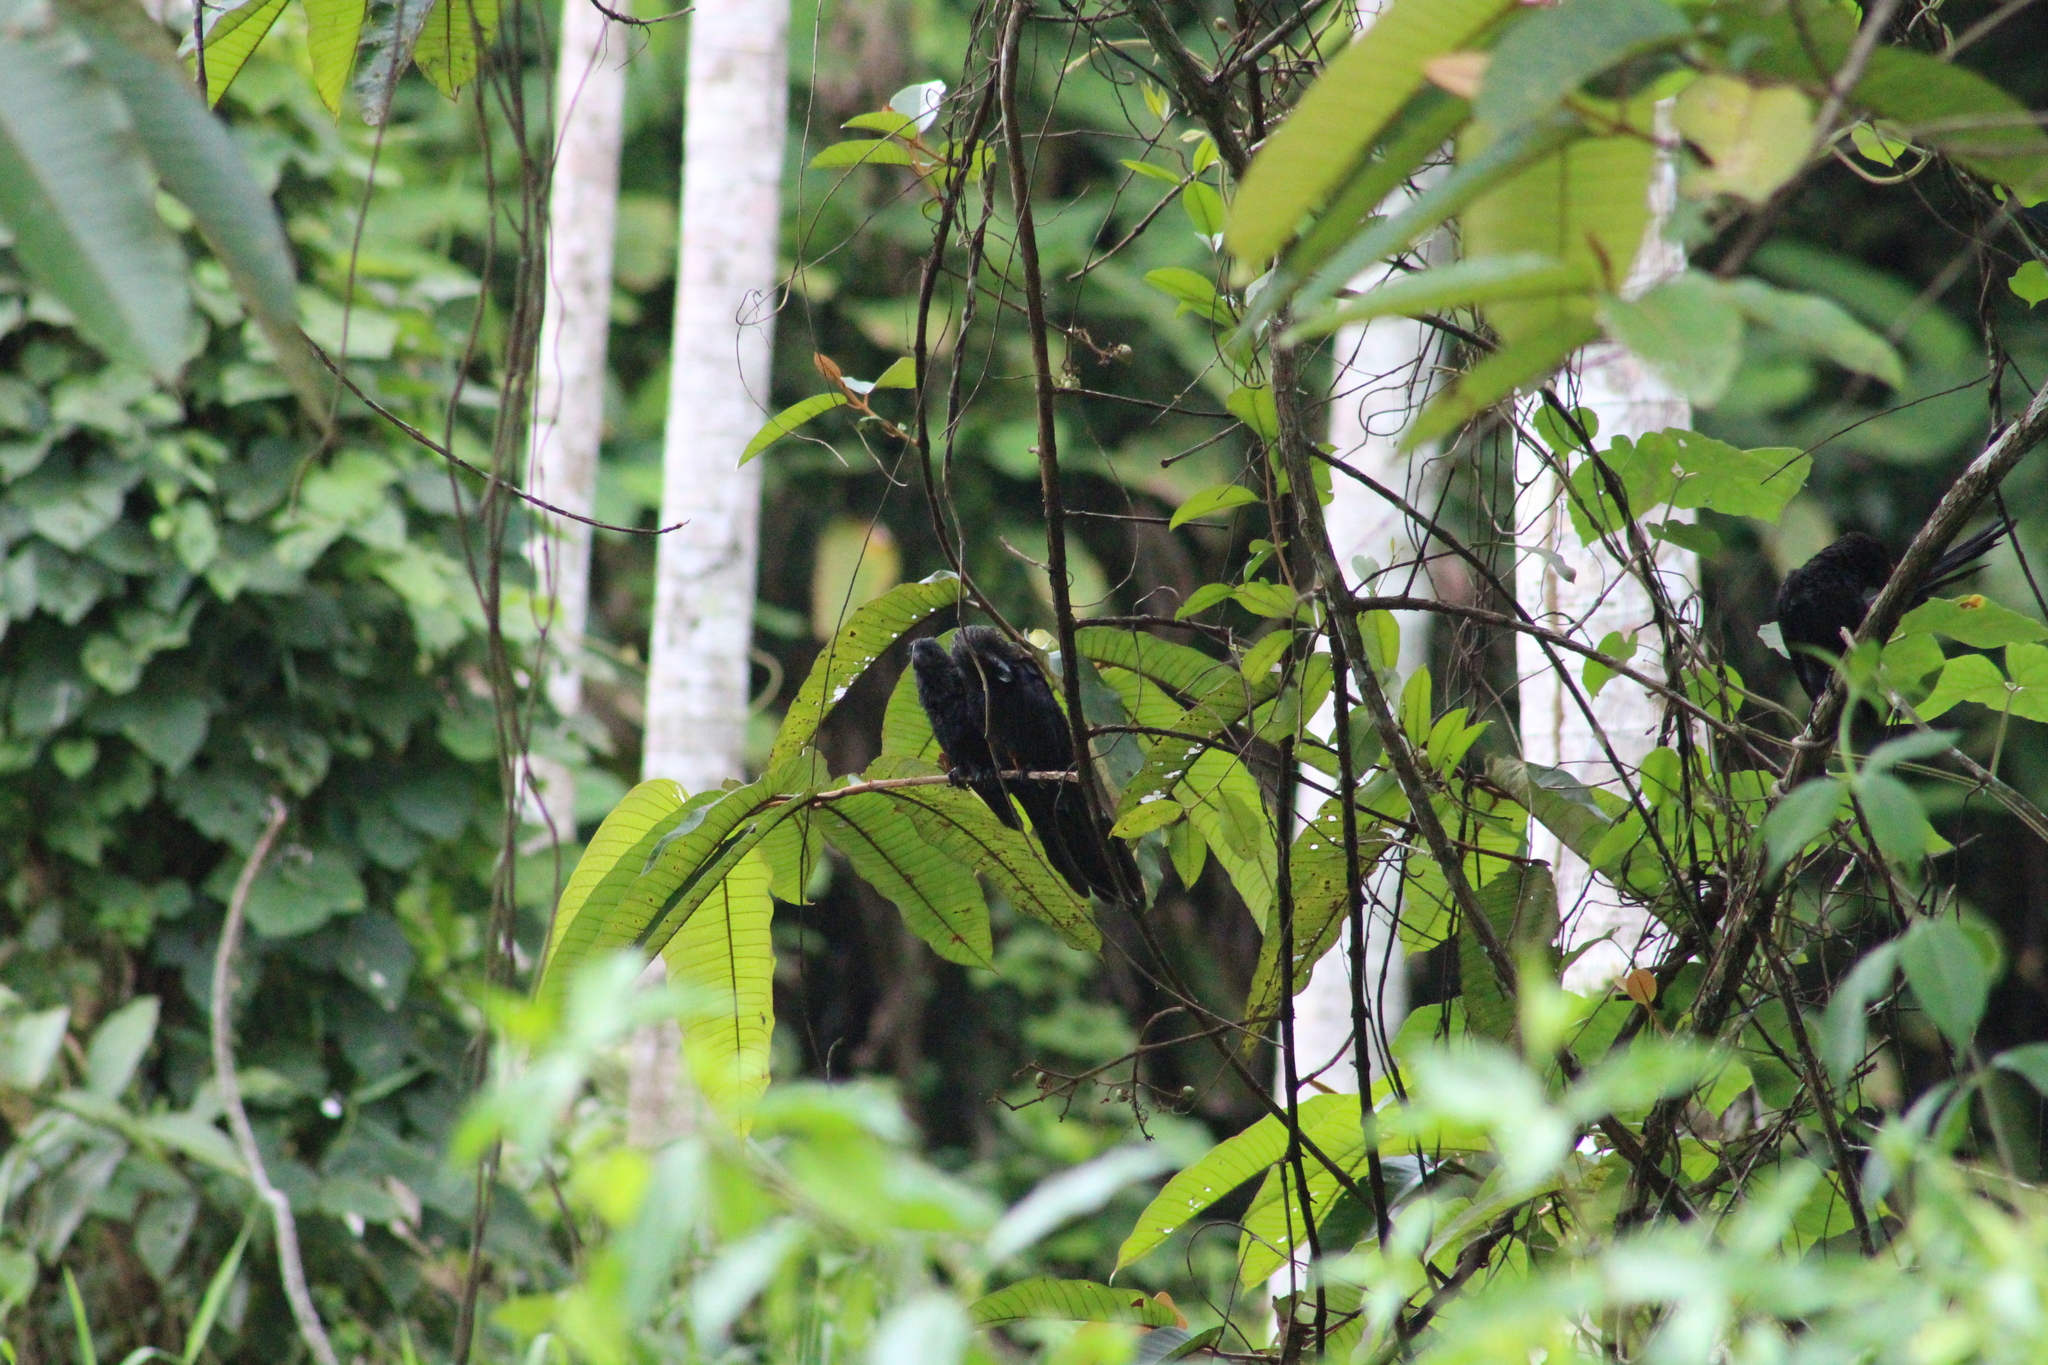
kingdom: Animalia
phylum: Chordata
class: Aves
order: Cuculiformes
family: Cuculidae
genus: Crotophaga
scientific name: Crotophaga ani
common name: Smooth-billed ani
